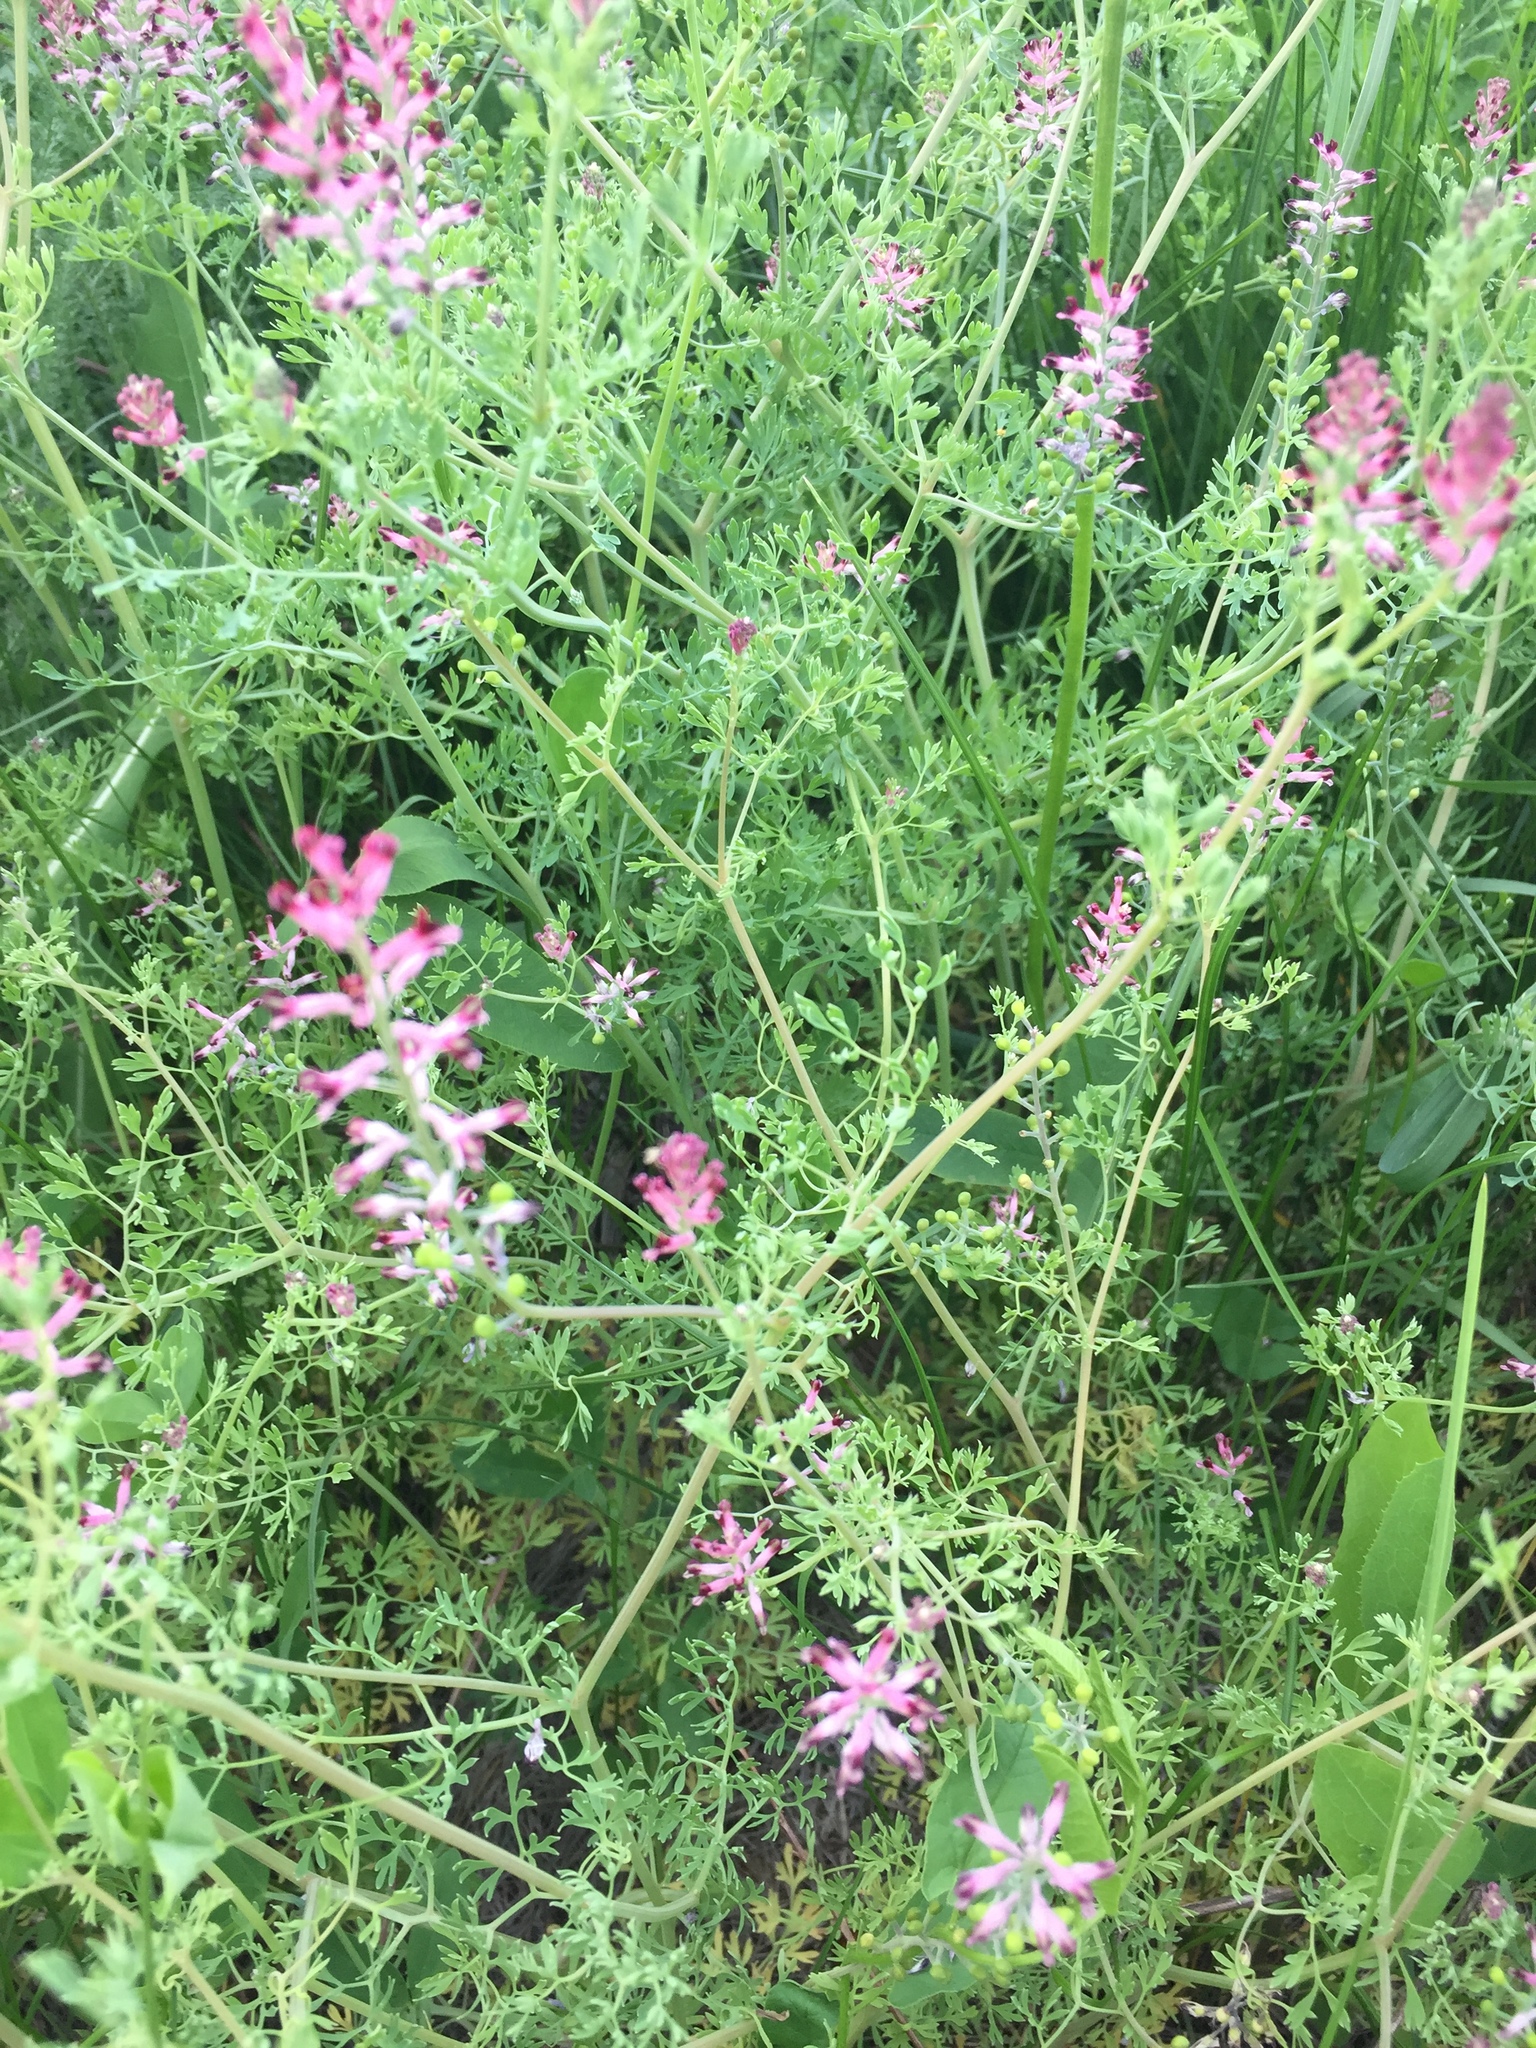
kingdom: Plantae
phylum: Tracheophyta
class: Magnoliopsida
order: Ranunculales
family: Papaveraceae
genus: Fumaria
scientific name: Fumaria schleicheri
